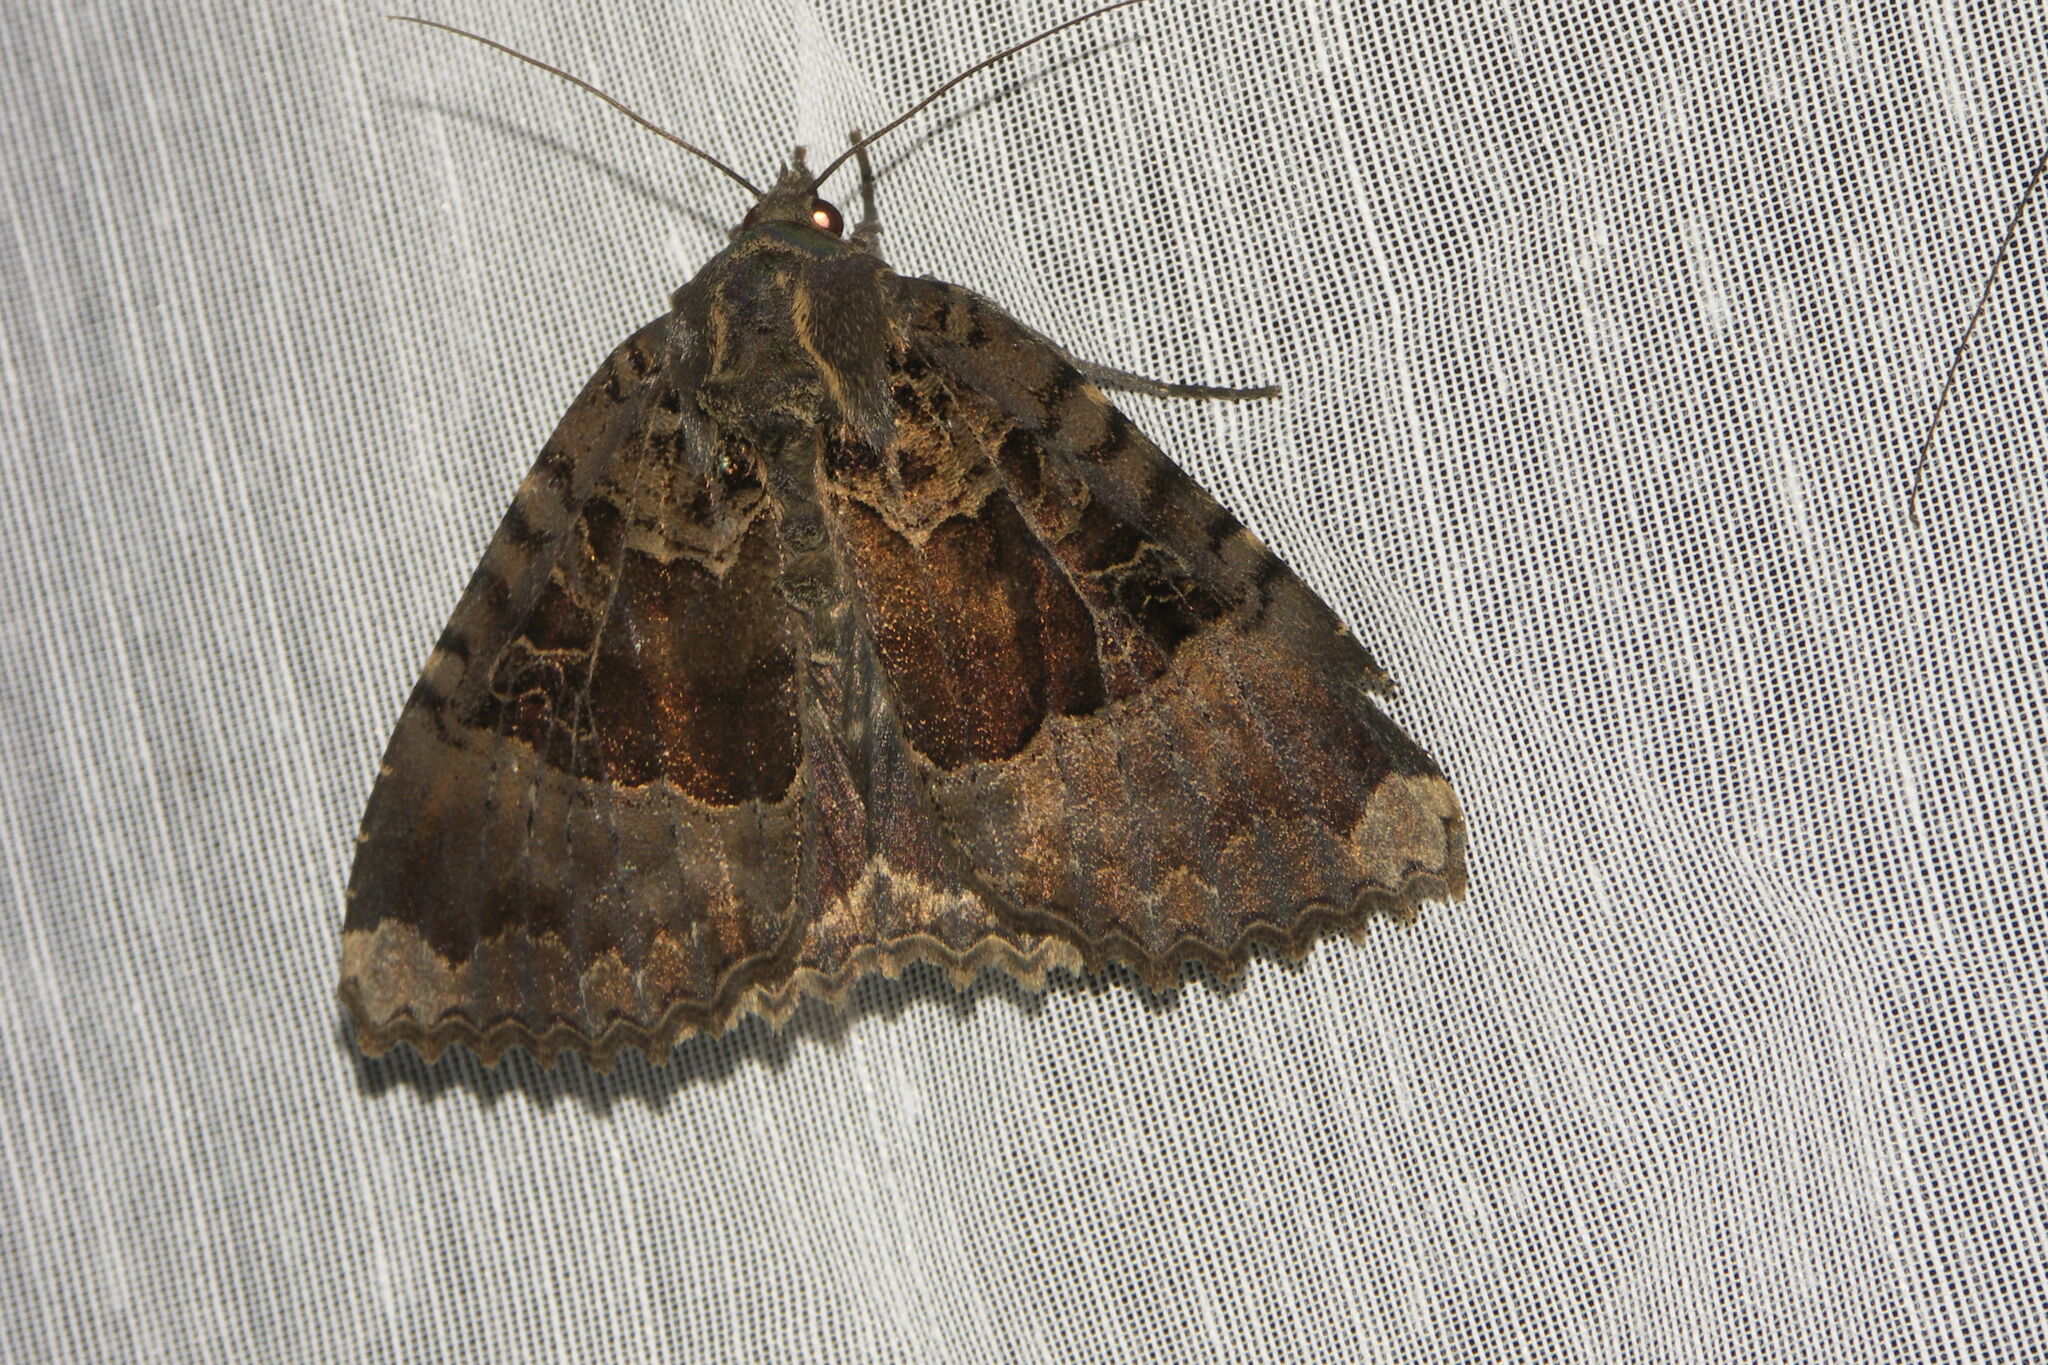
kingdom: Animalia
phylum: Arthropoda
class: Insecta
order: Lepidoptera
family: Noctuidae
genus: Mormo
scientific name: Mormo maura
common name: Old lady
